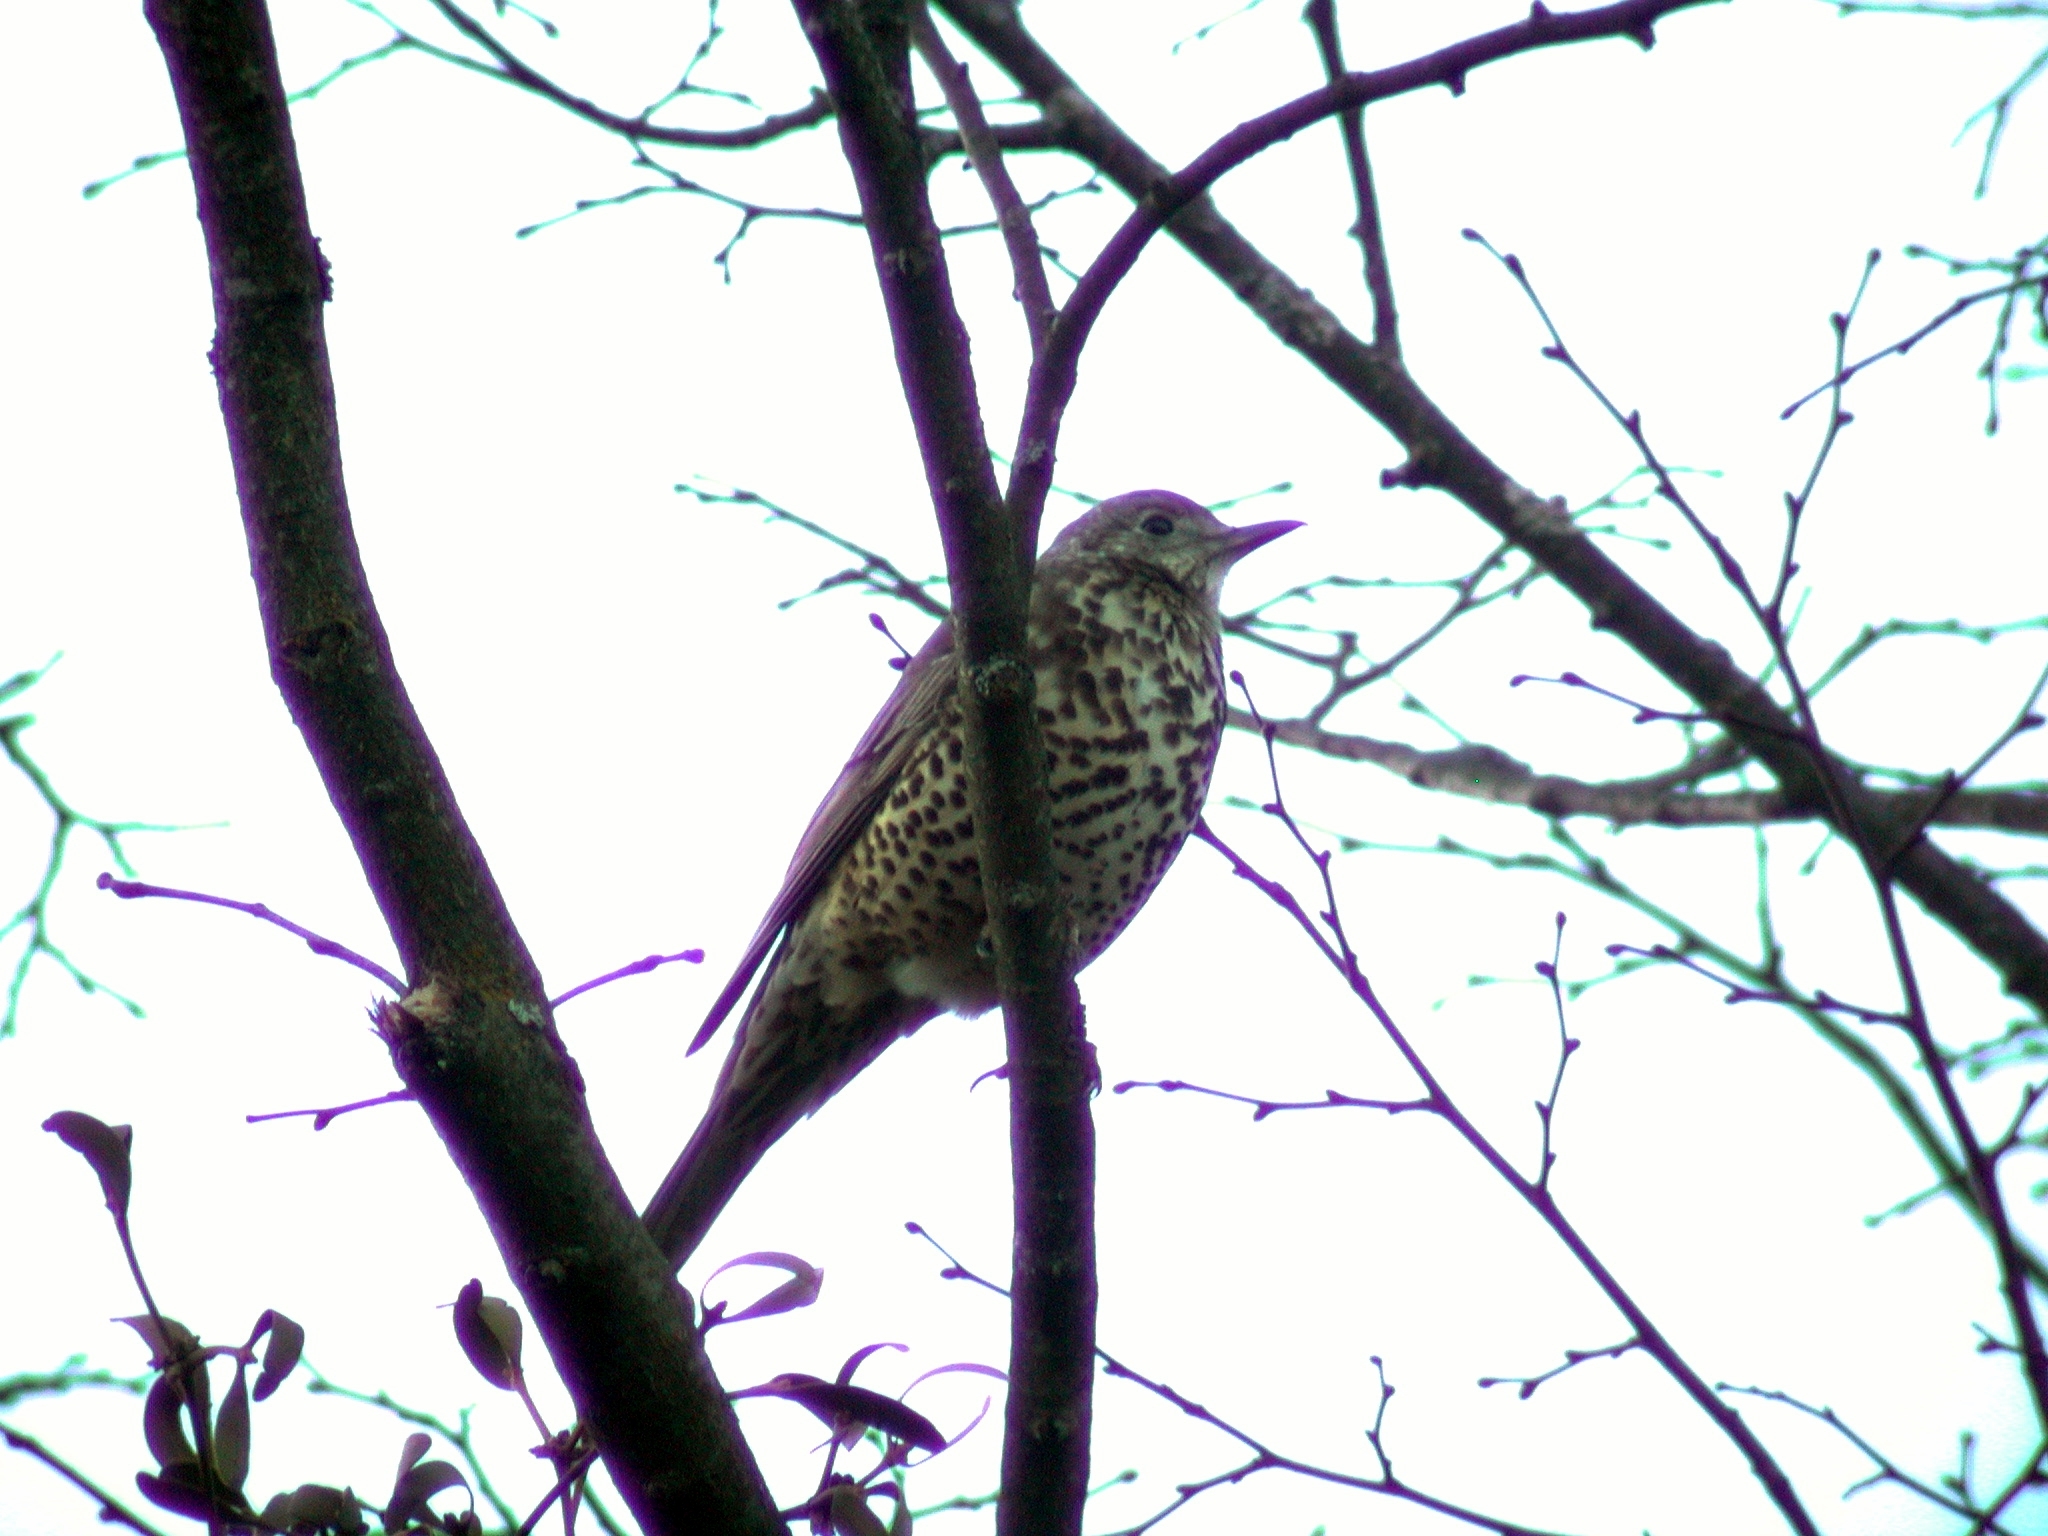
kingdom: Animalia
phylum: Chordata
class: Aves
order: Passeriformes
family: Turdidae
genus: Turdus
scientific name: Turdus viscivorus
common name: Mistle thrush
